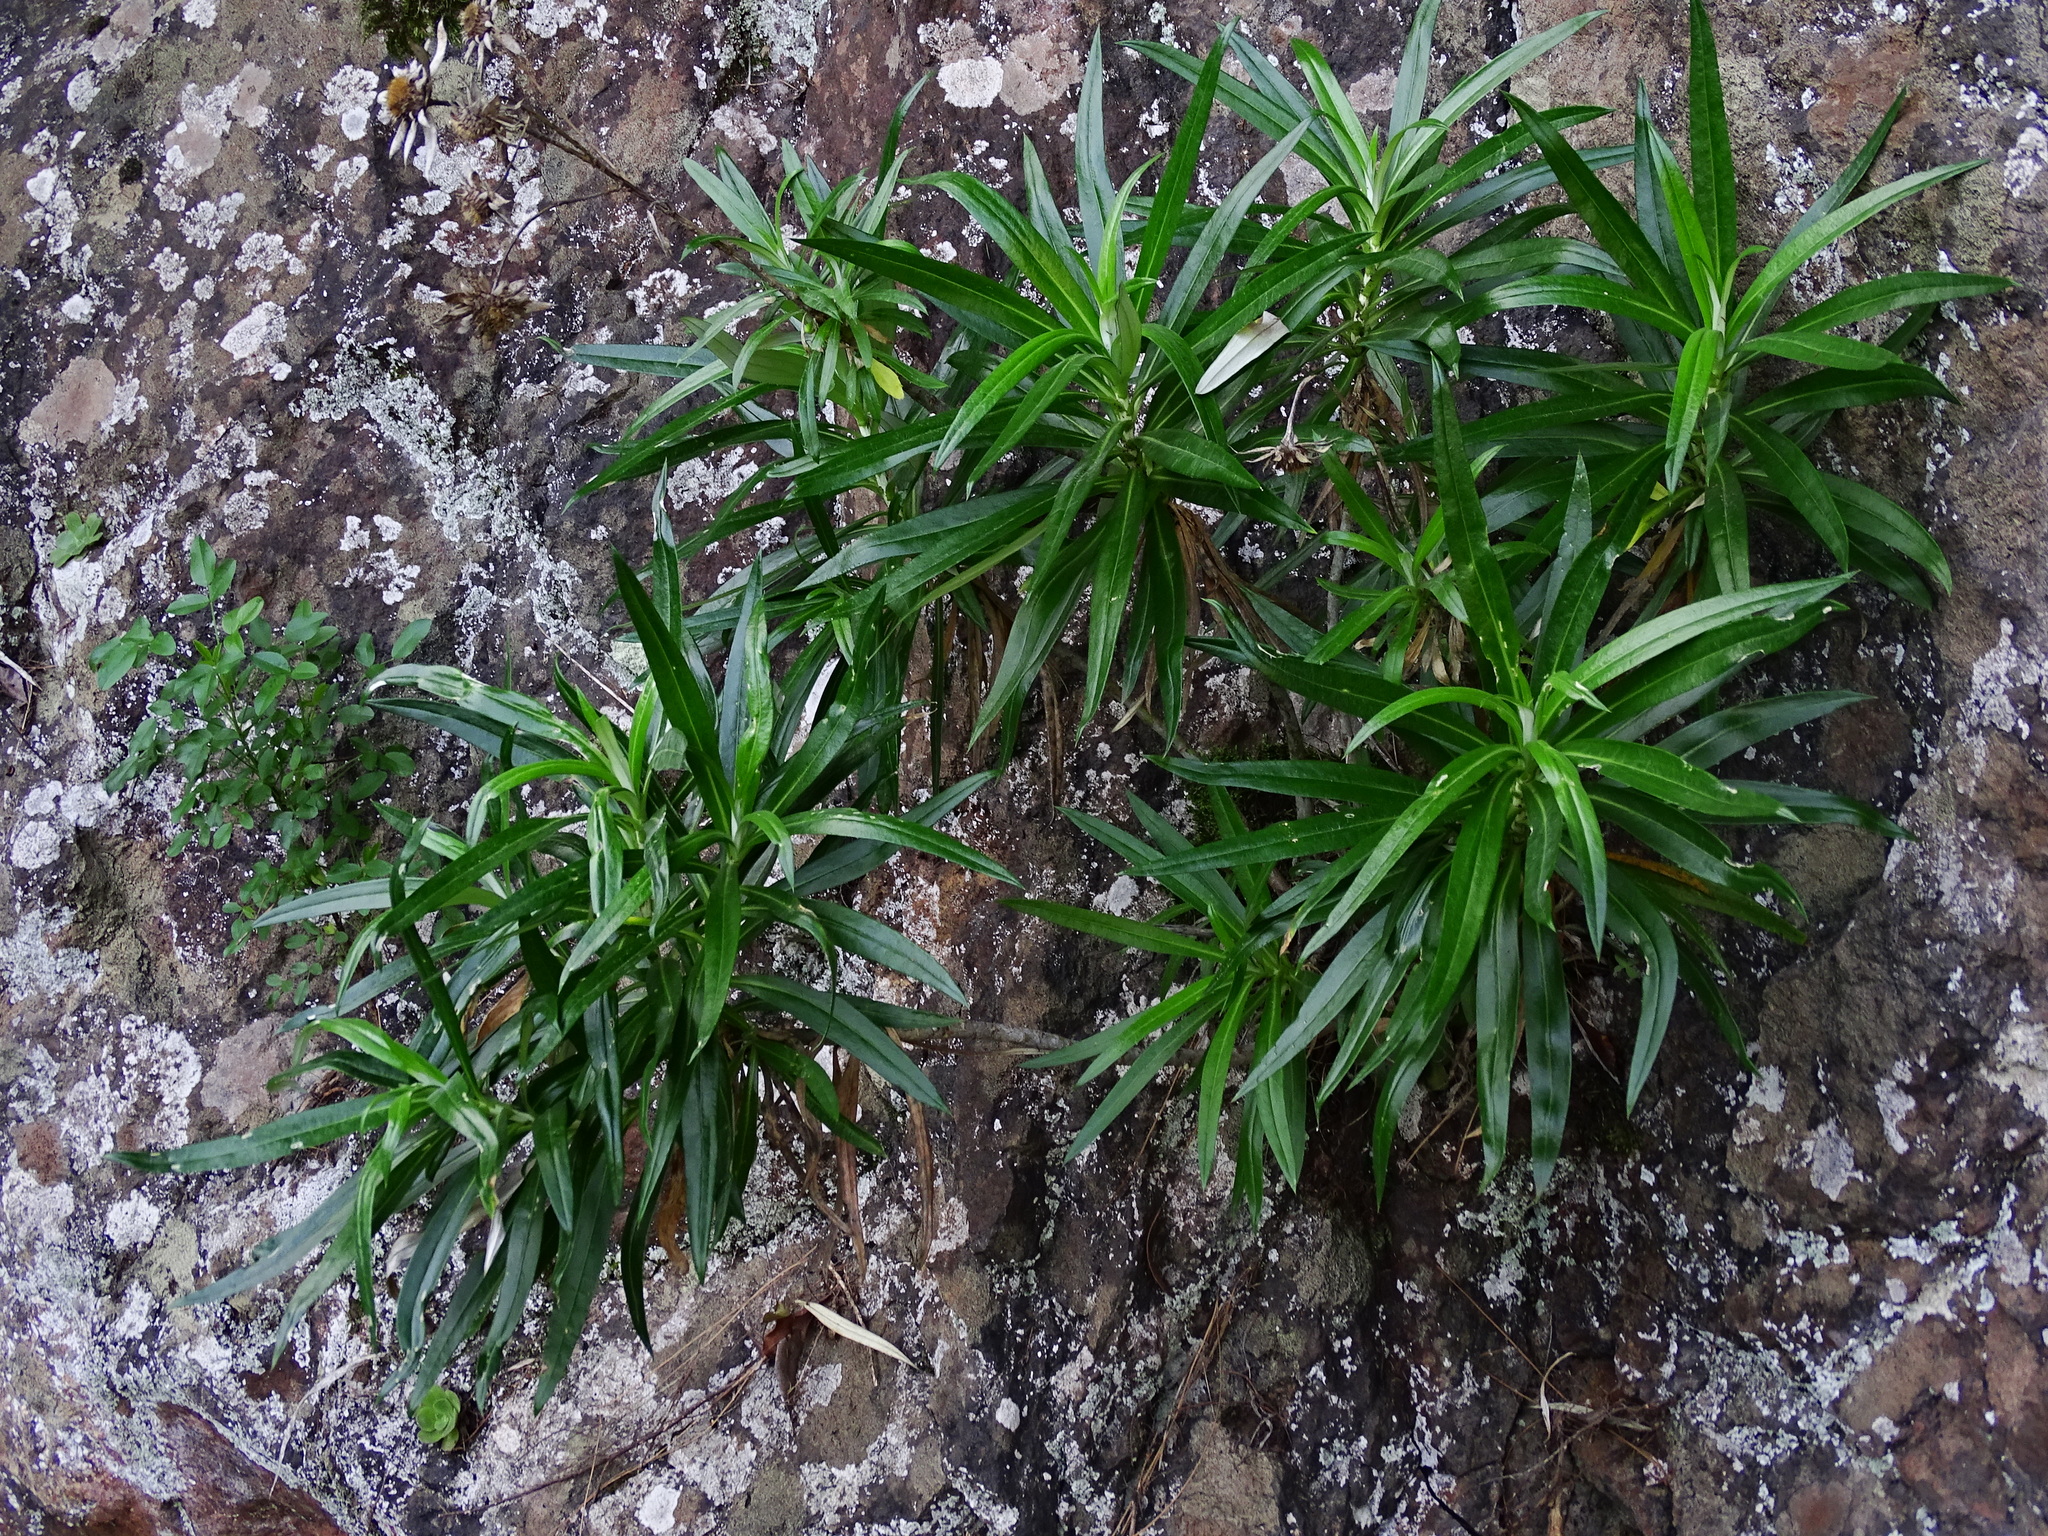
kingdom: Plantae
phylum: Tracheophyta
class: Magnoliopsida
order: Asterales
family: Asteraceae
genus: Carlina
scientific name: Carlina falcata
